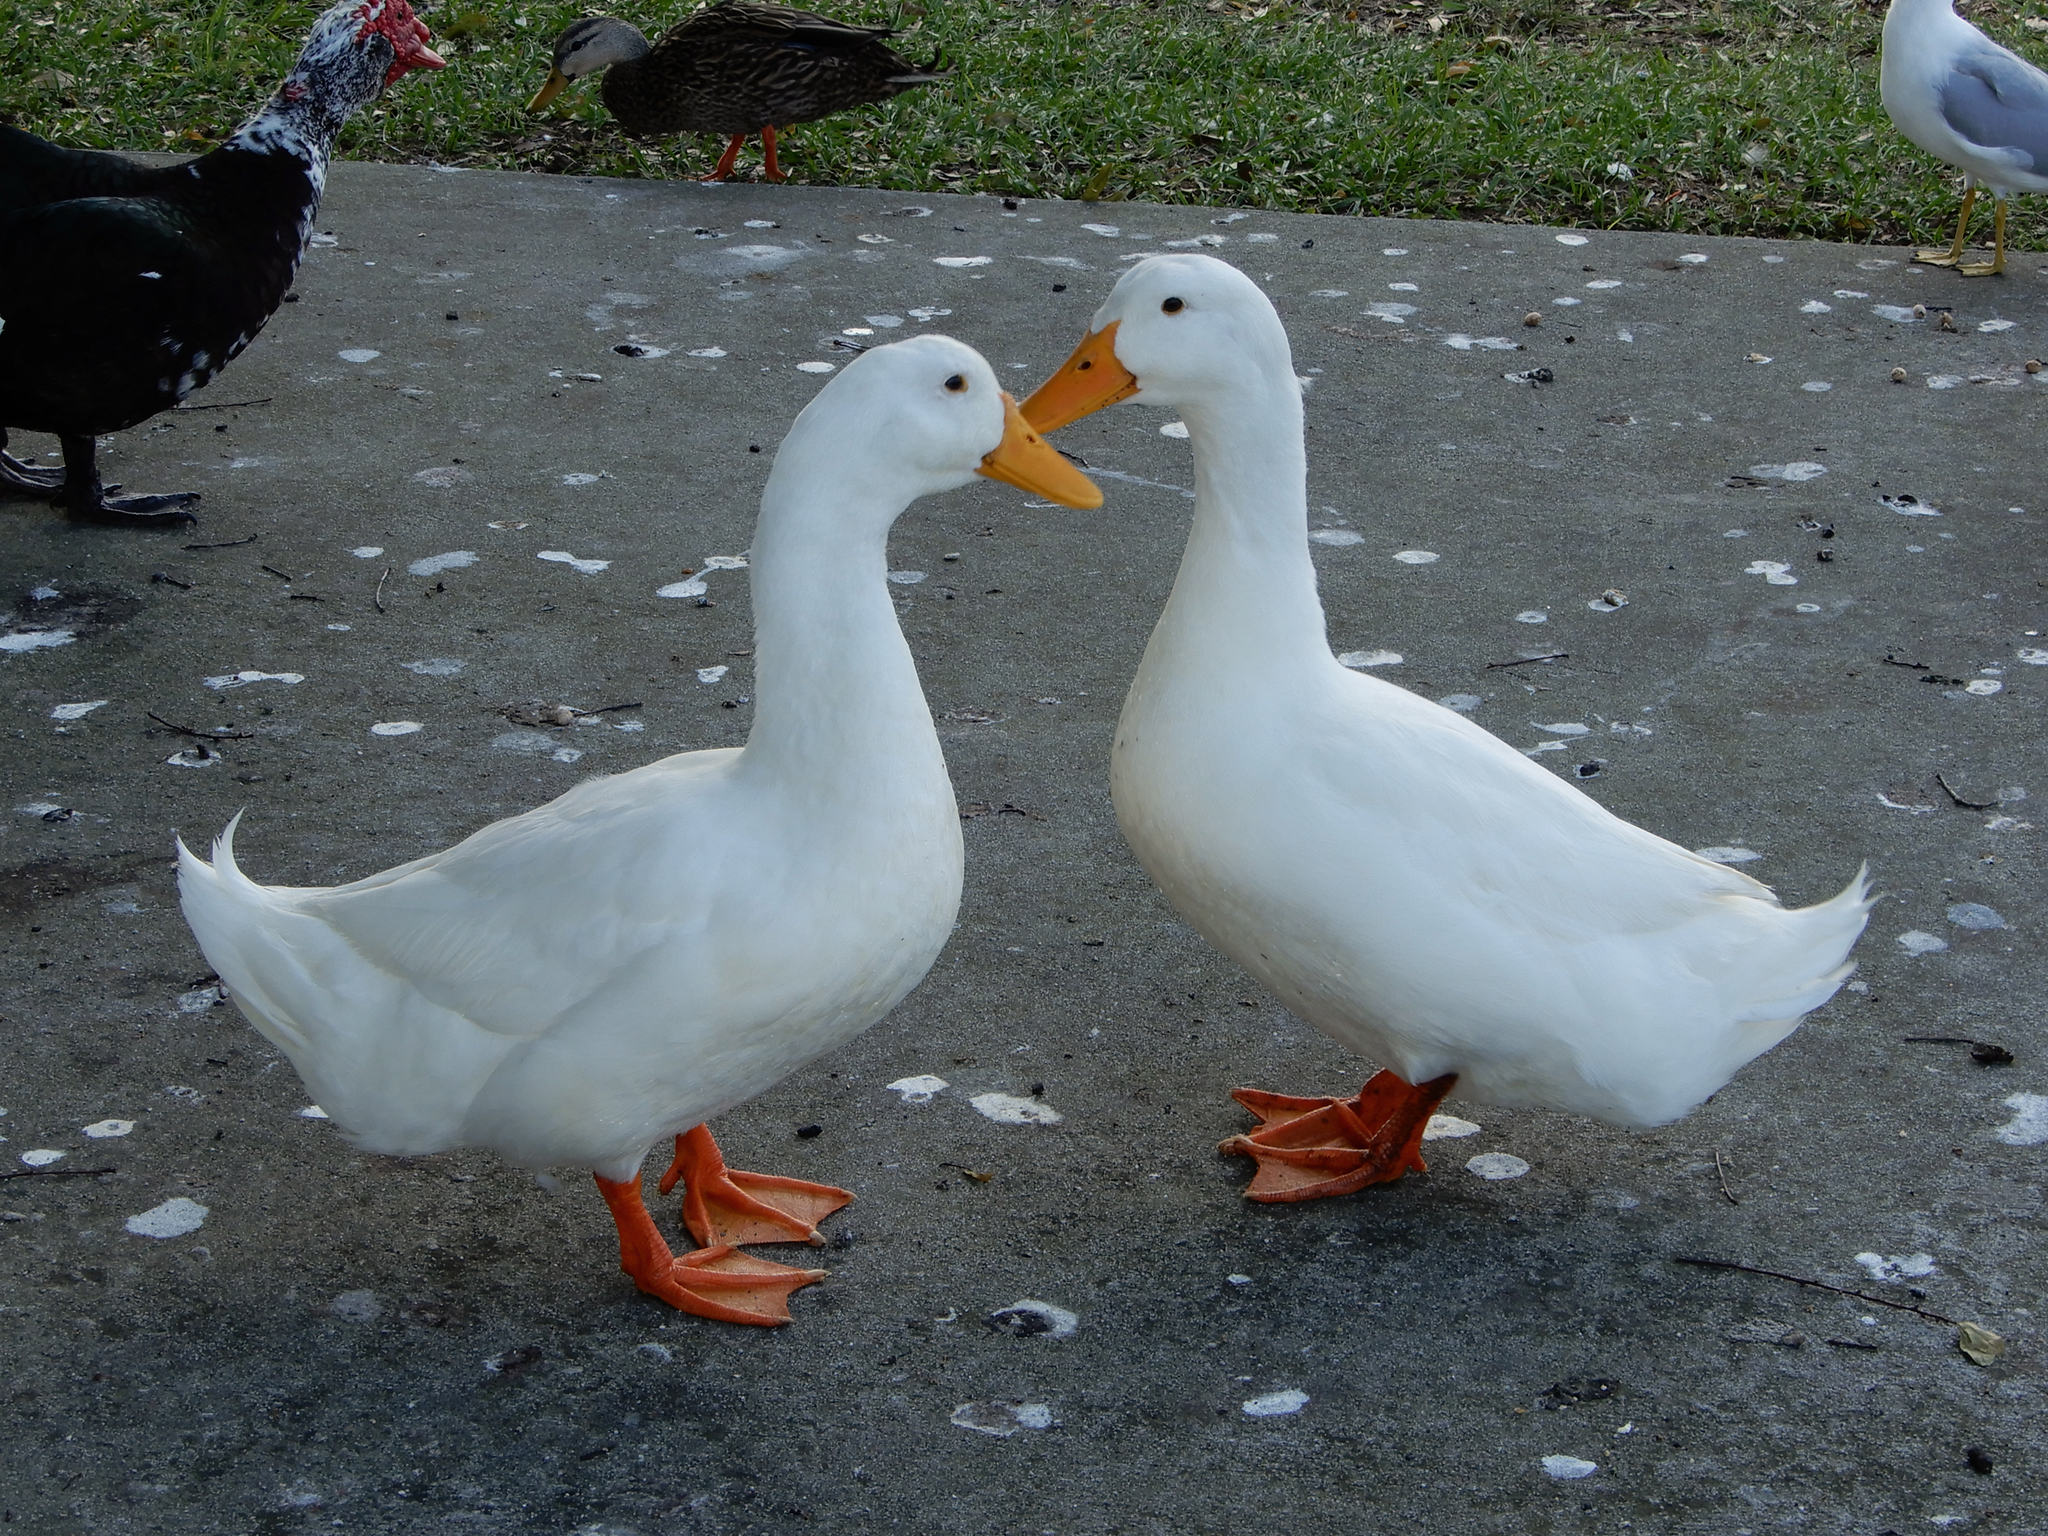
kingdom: Animalia
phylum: Chordata
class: Aves
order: Anseriformes
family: Anatidae
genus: Anas
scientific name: Anas platyrhynchos
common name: Mallard
